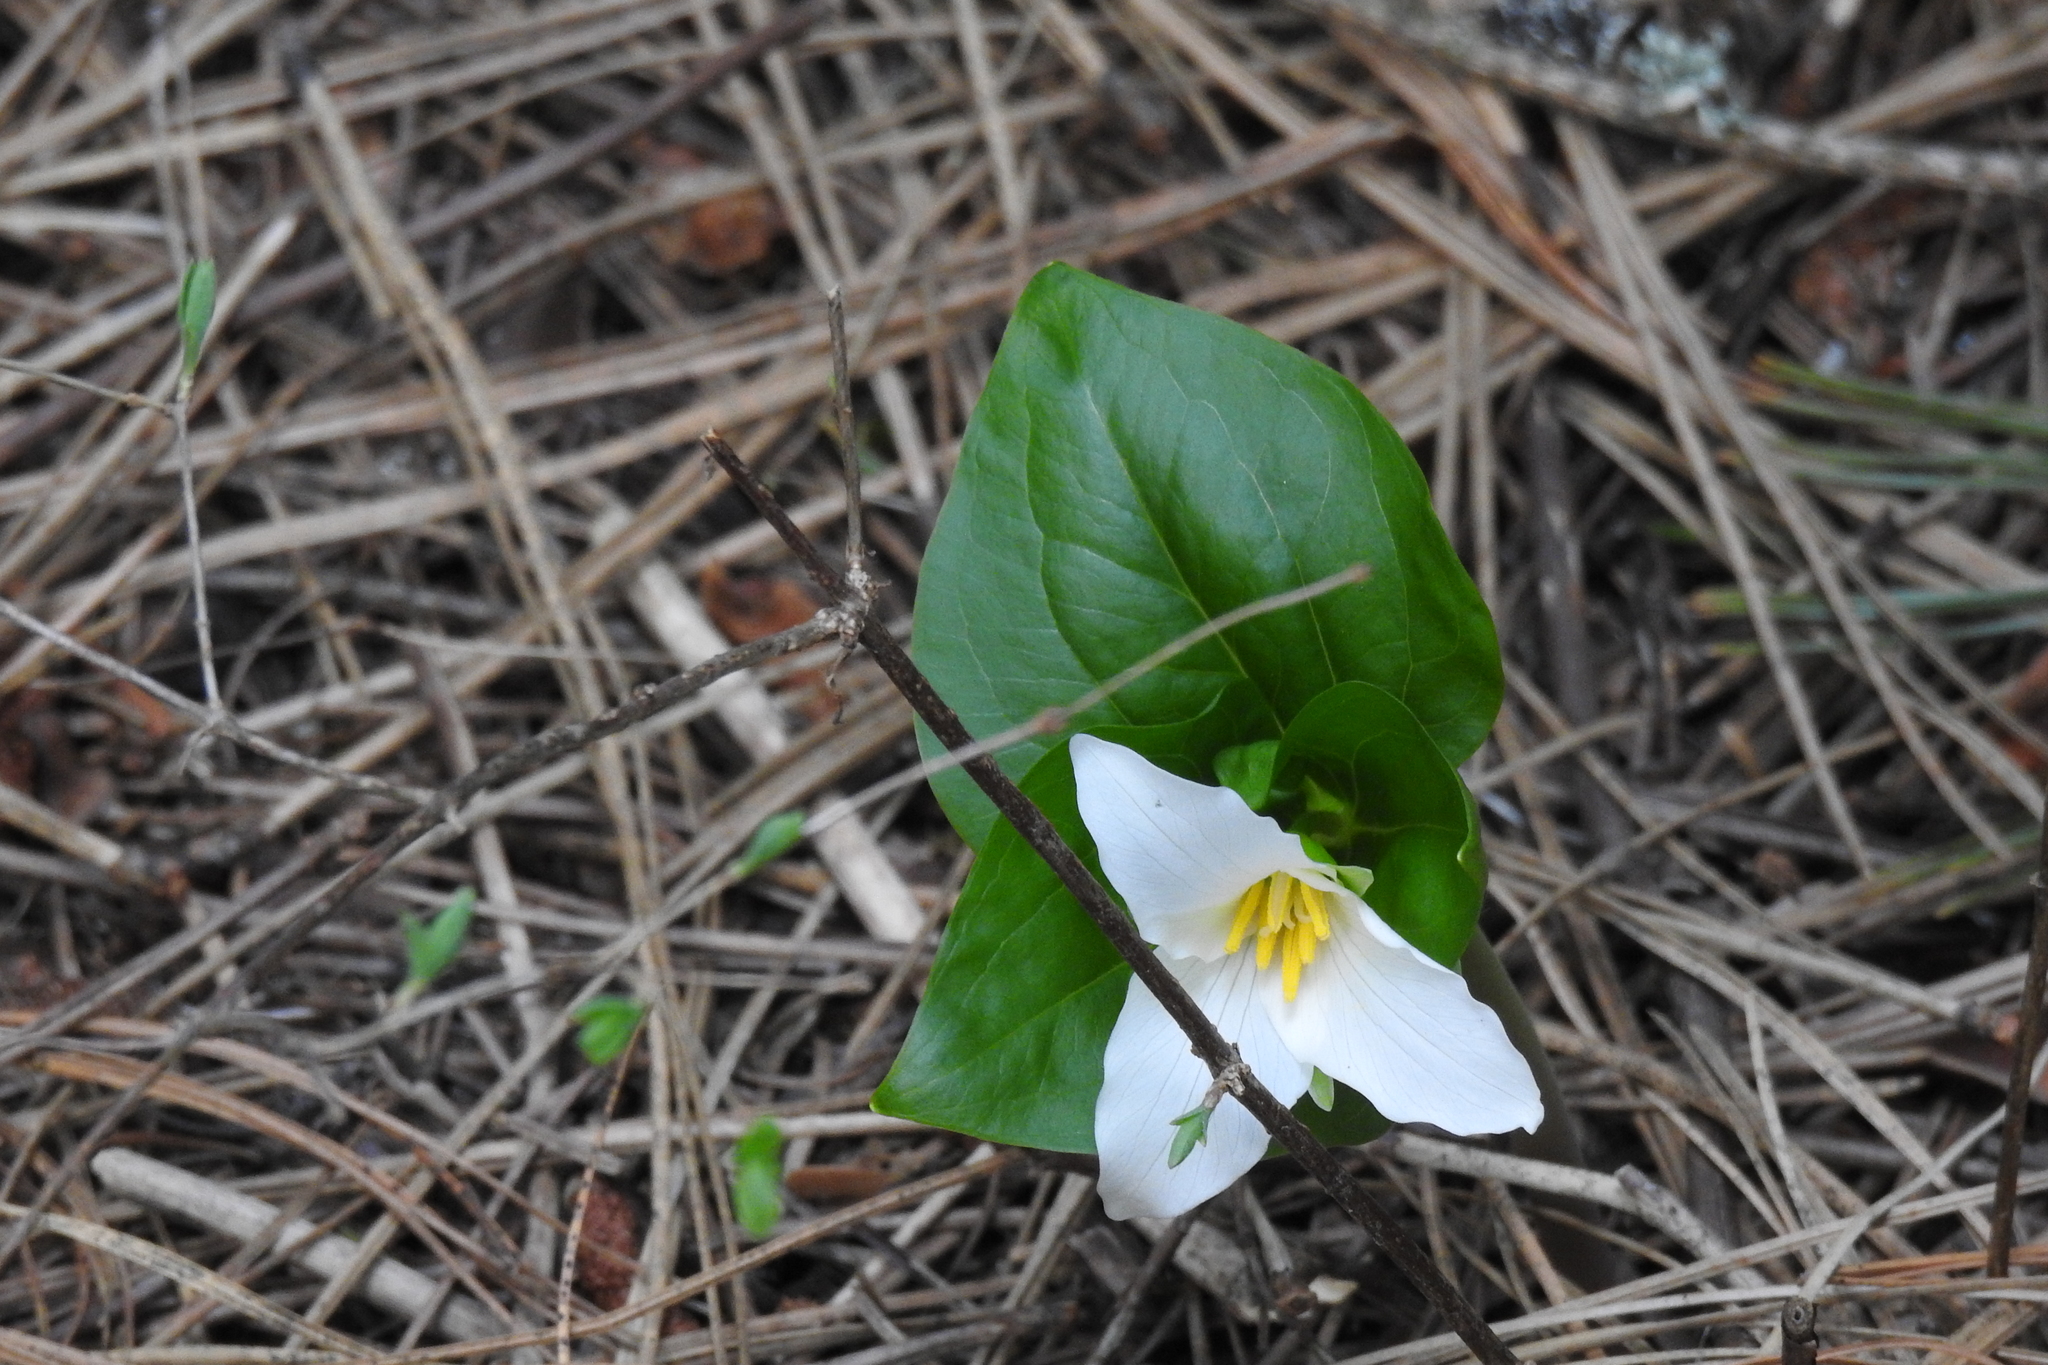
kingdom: Plantae
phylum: Tracheophyta
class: Liliopsida
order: Liliales
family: Melanthiaceae
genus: Trillium
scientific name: Trillium ovatum
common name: Pacific trillium
